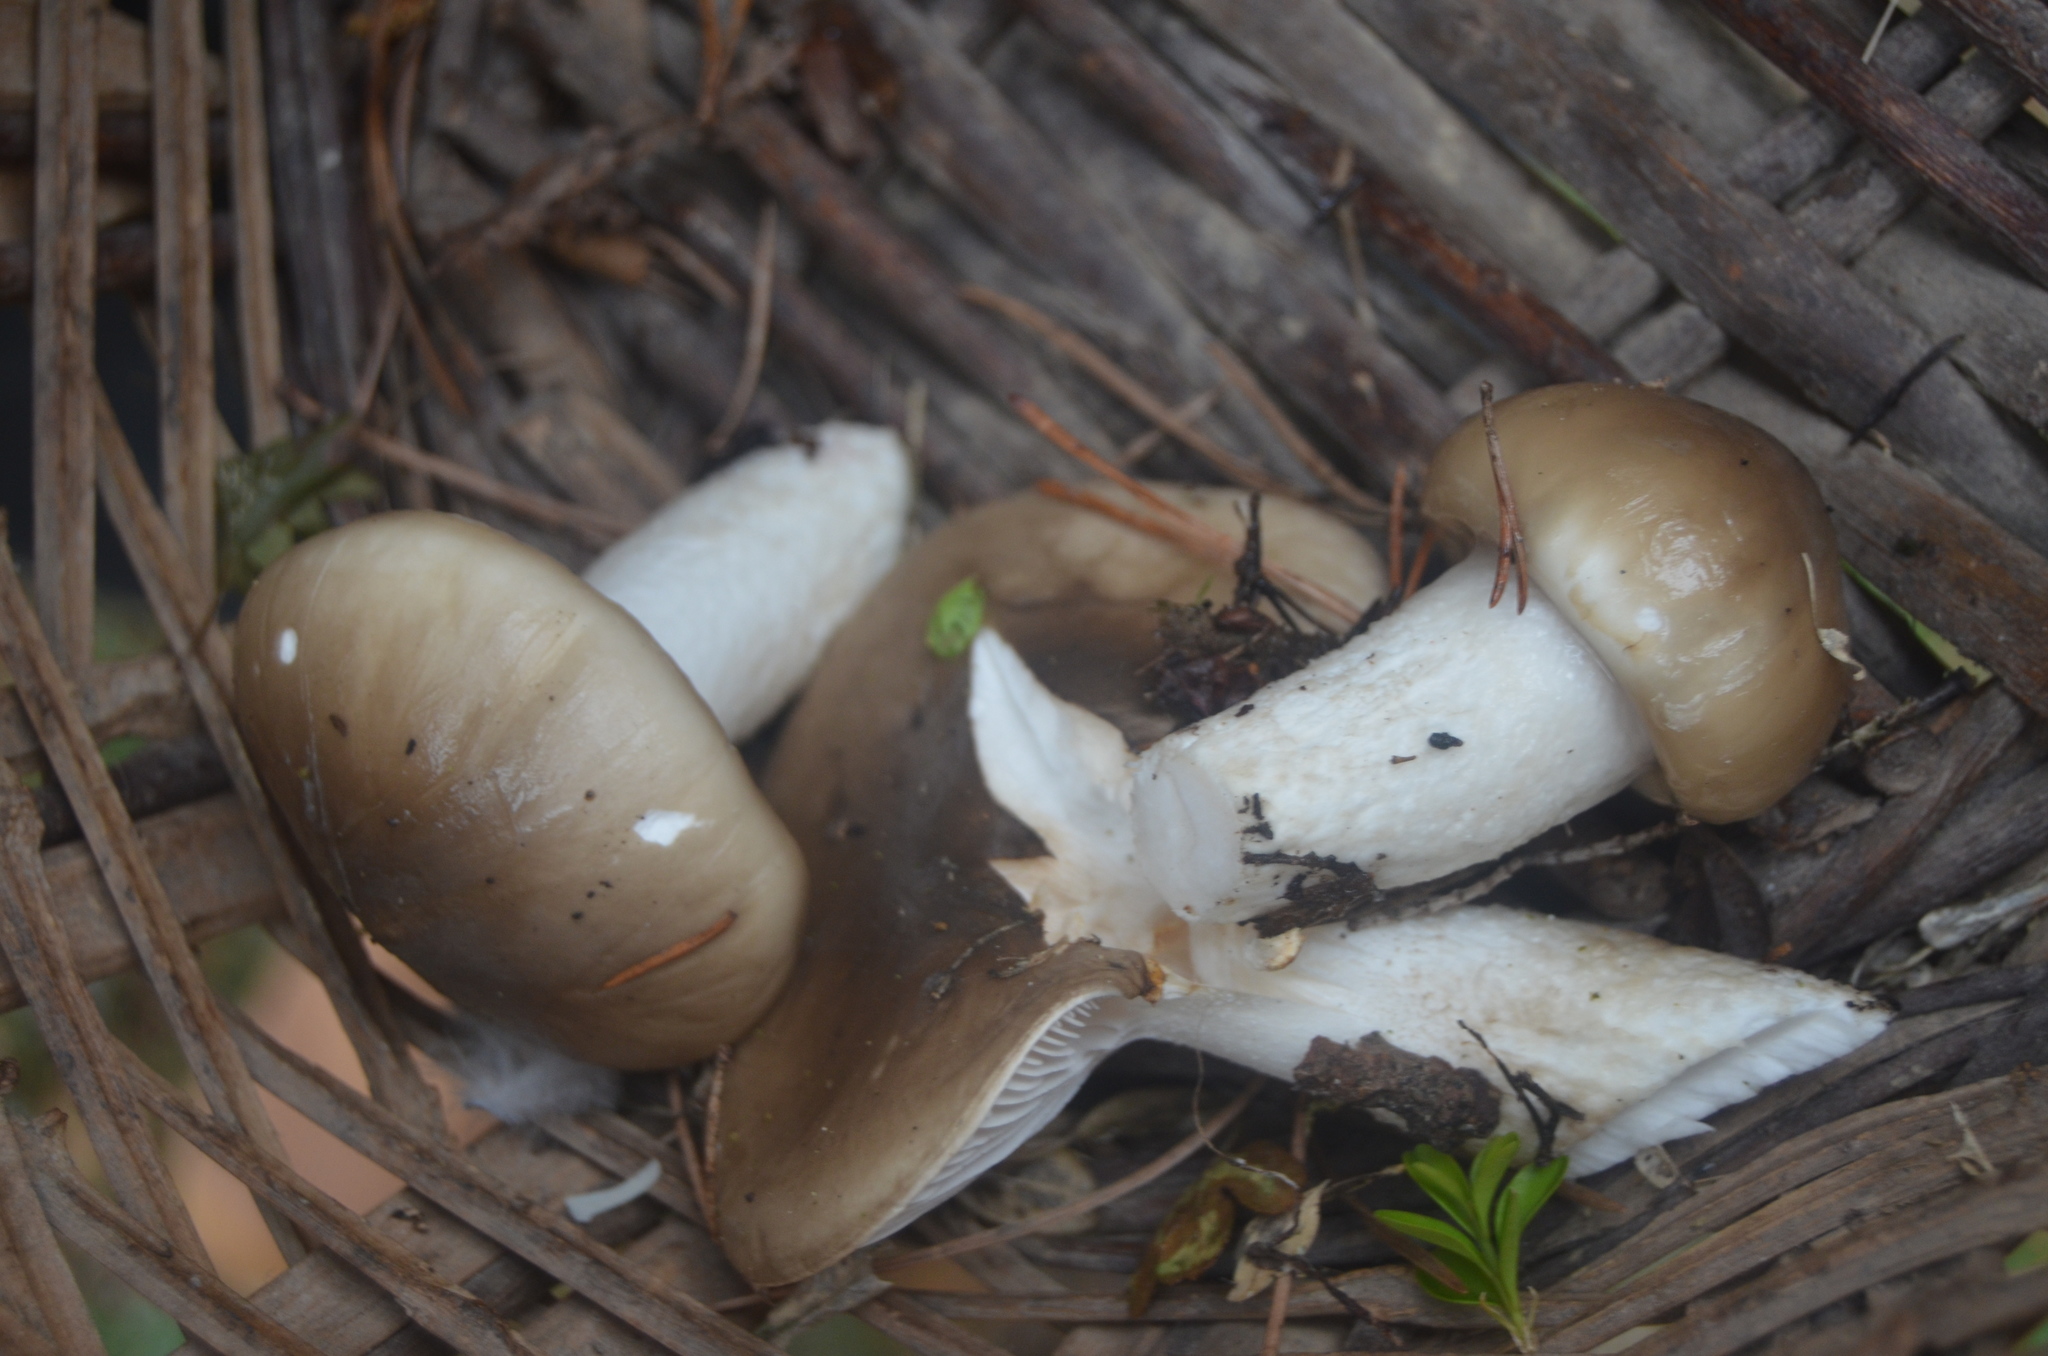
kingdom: Fungi
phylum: Basidiomycota
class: Agaricomycetes
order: Agaricales
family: Hygrophoraceae
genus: Hygrophorus
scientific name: Hygrophorus limacinus
